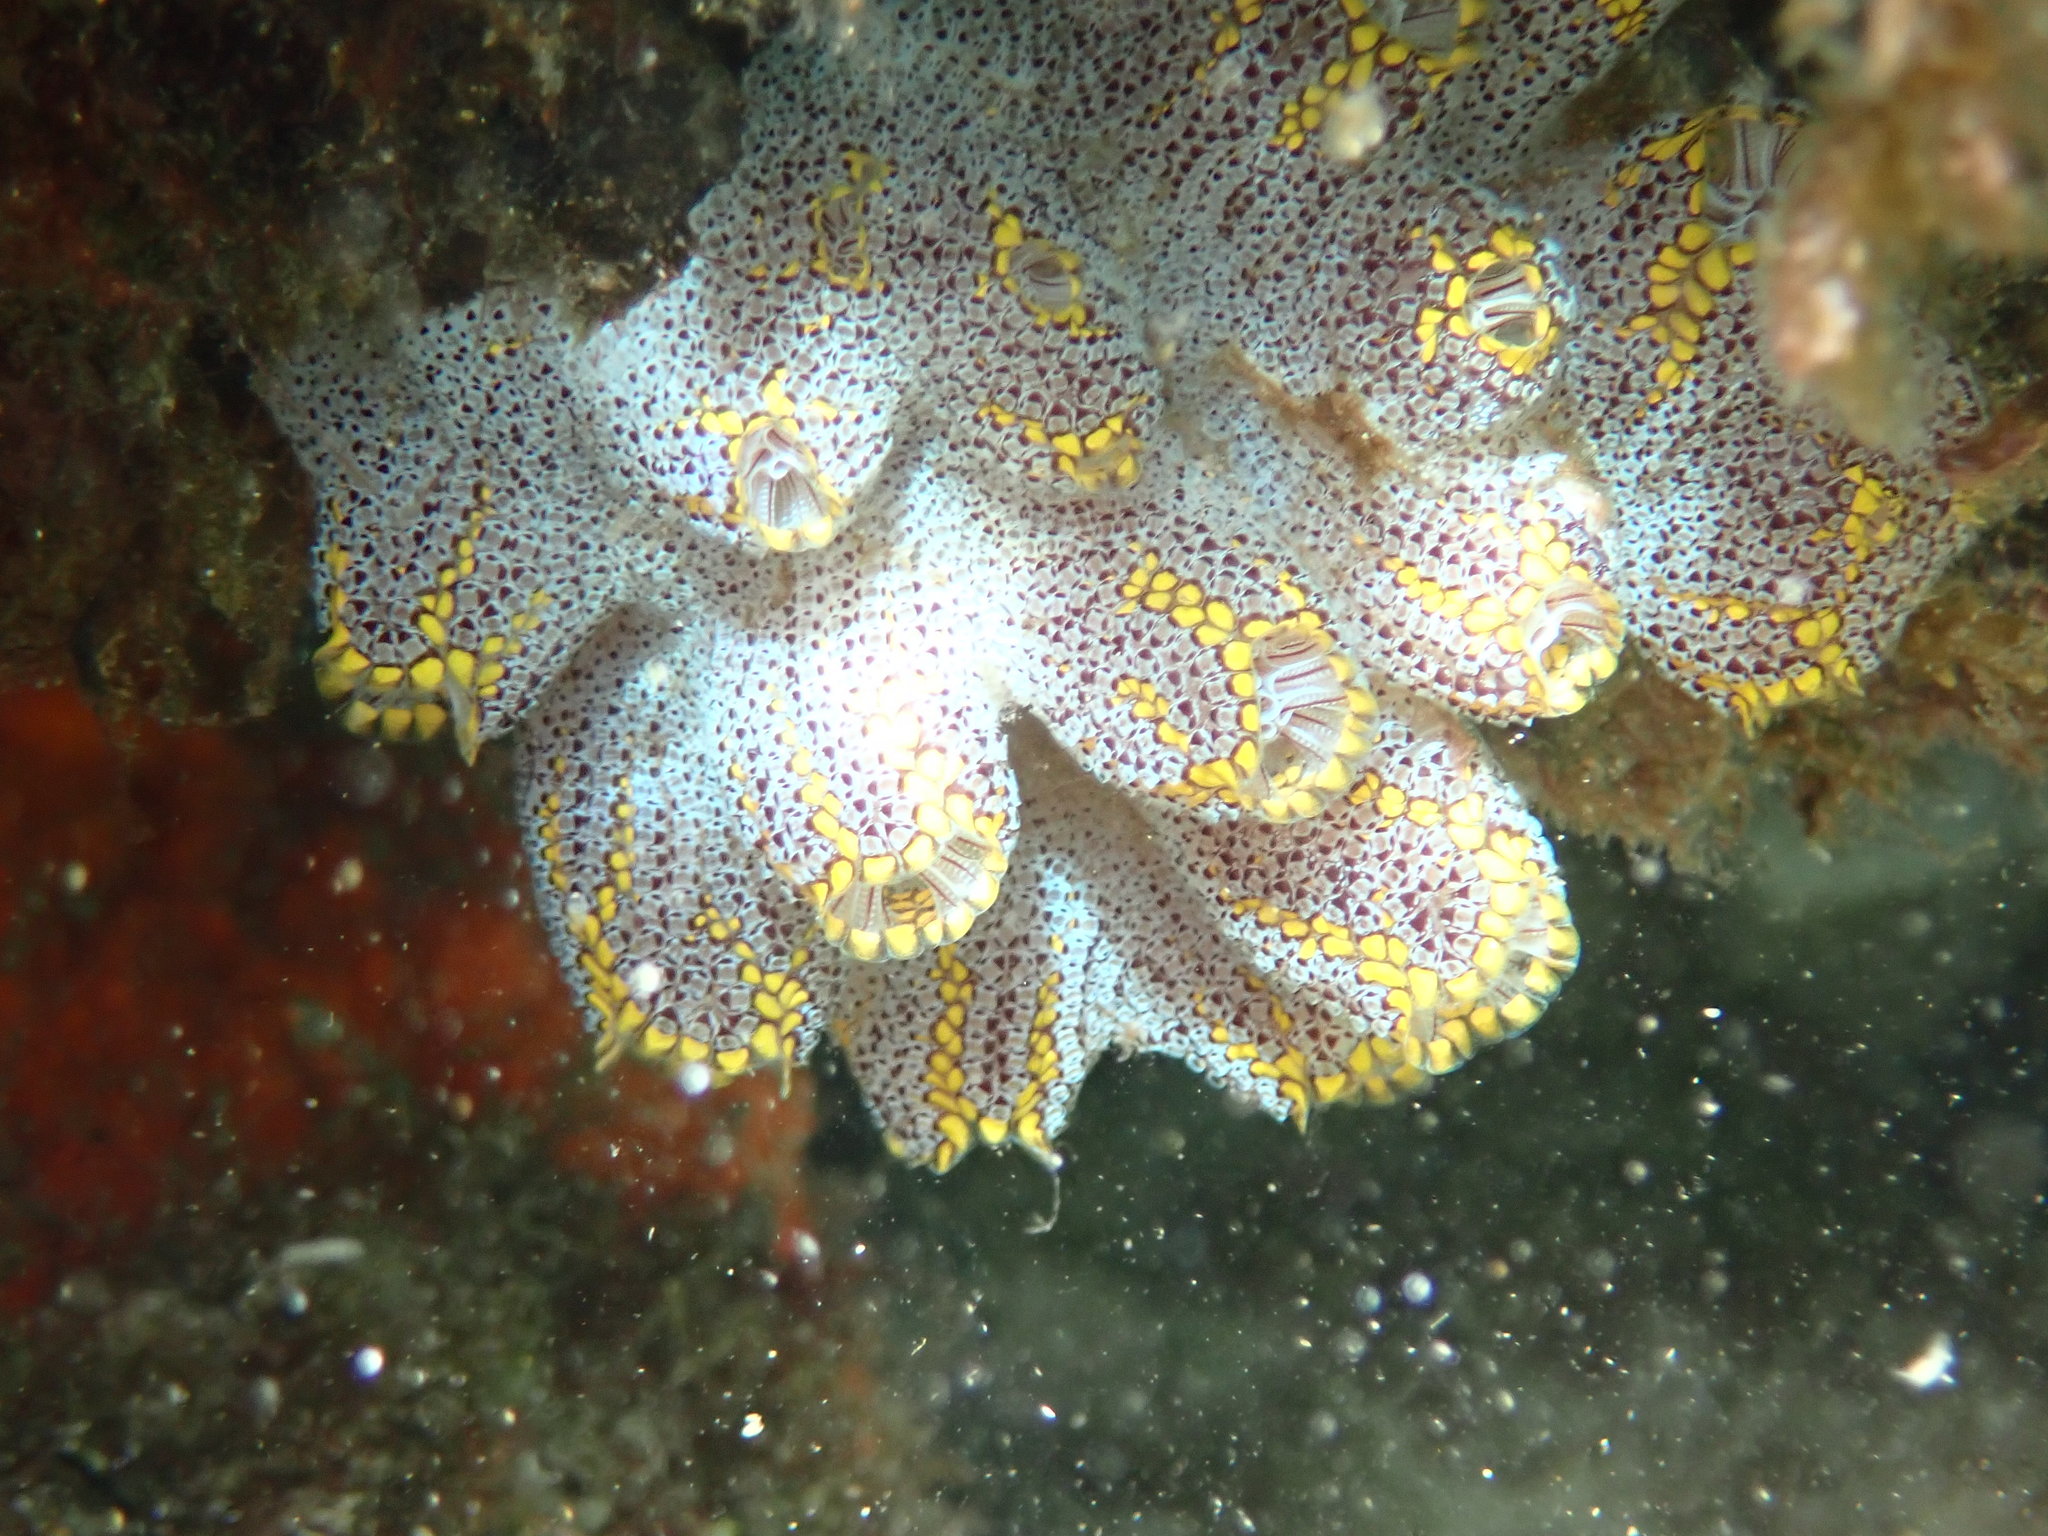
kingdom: Animalia
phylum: Chordata
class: Ascidiacea
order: Stolidobranchia
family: Styelidae
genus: Botrylloides
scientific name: Botrylloides magnicoecus
